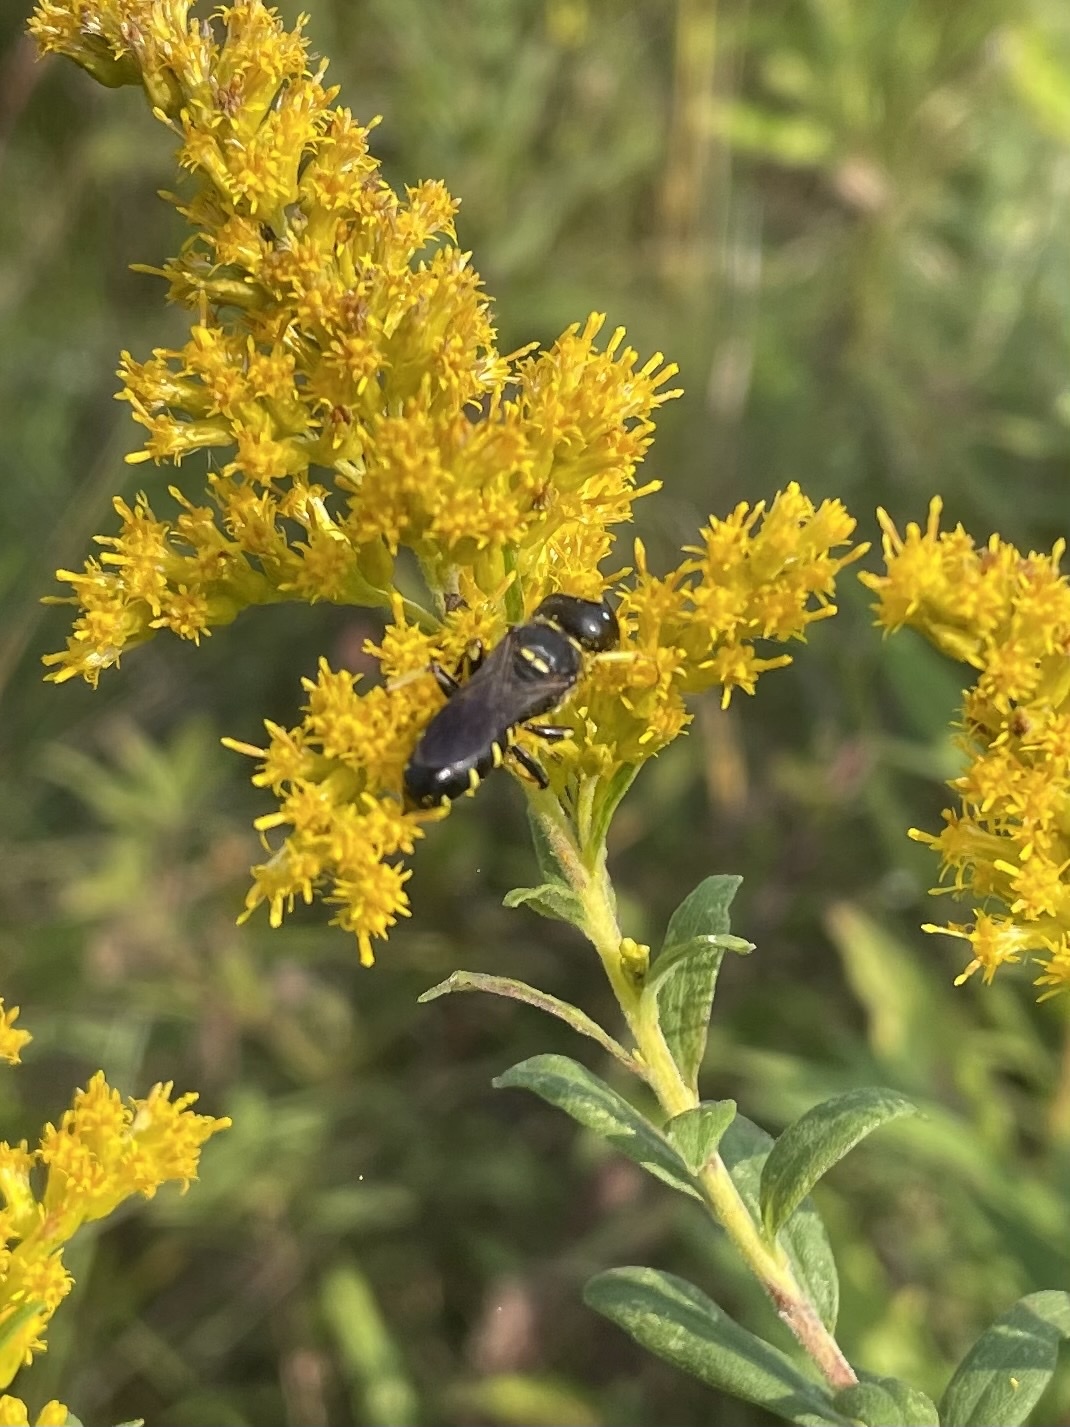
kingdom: Animalia
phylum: Arthropoda
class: Insecta
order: Hymenoptera
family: Crabronidae
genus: Ectemnius
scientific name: Ectemnius maculosus
